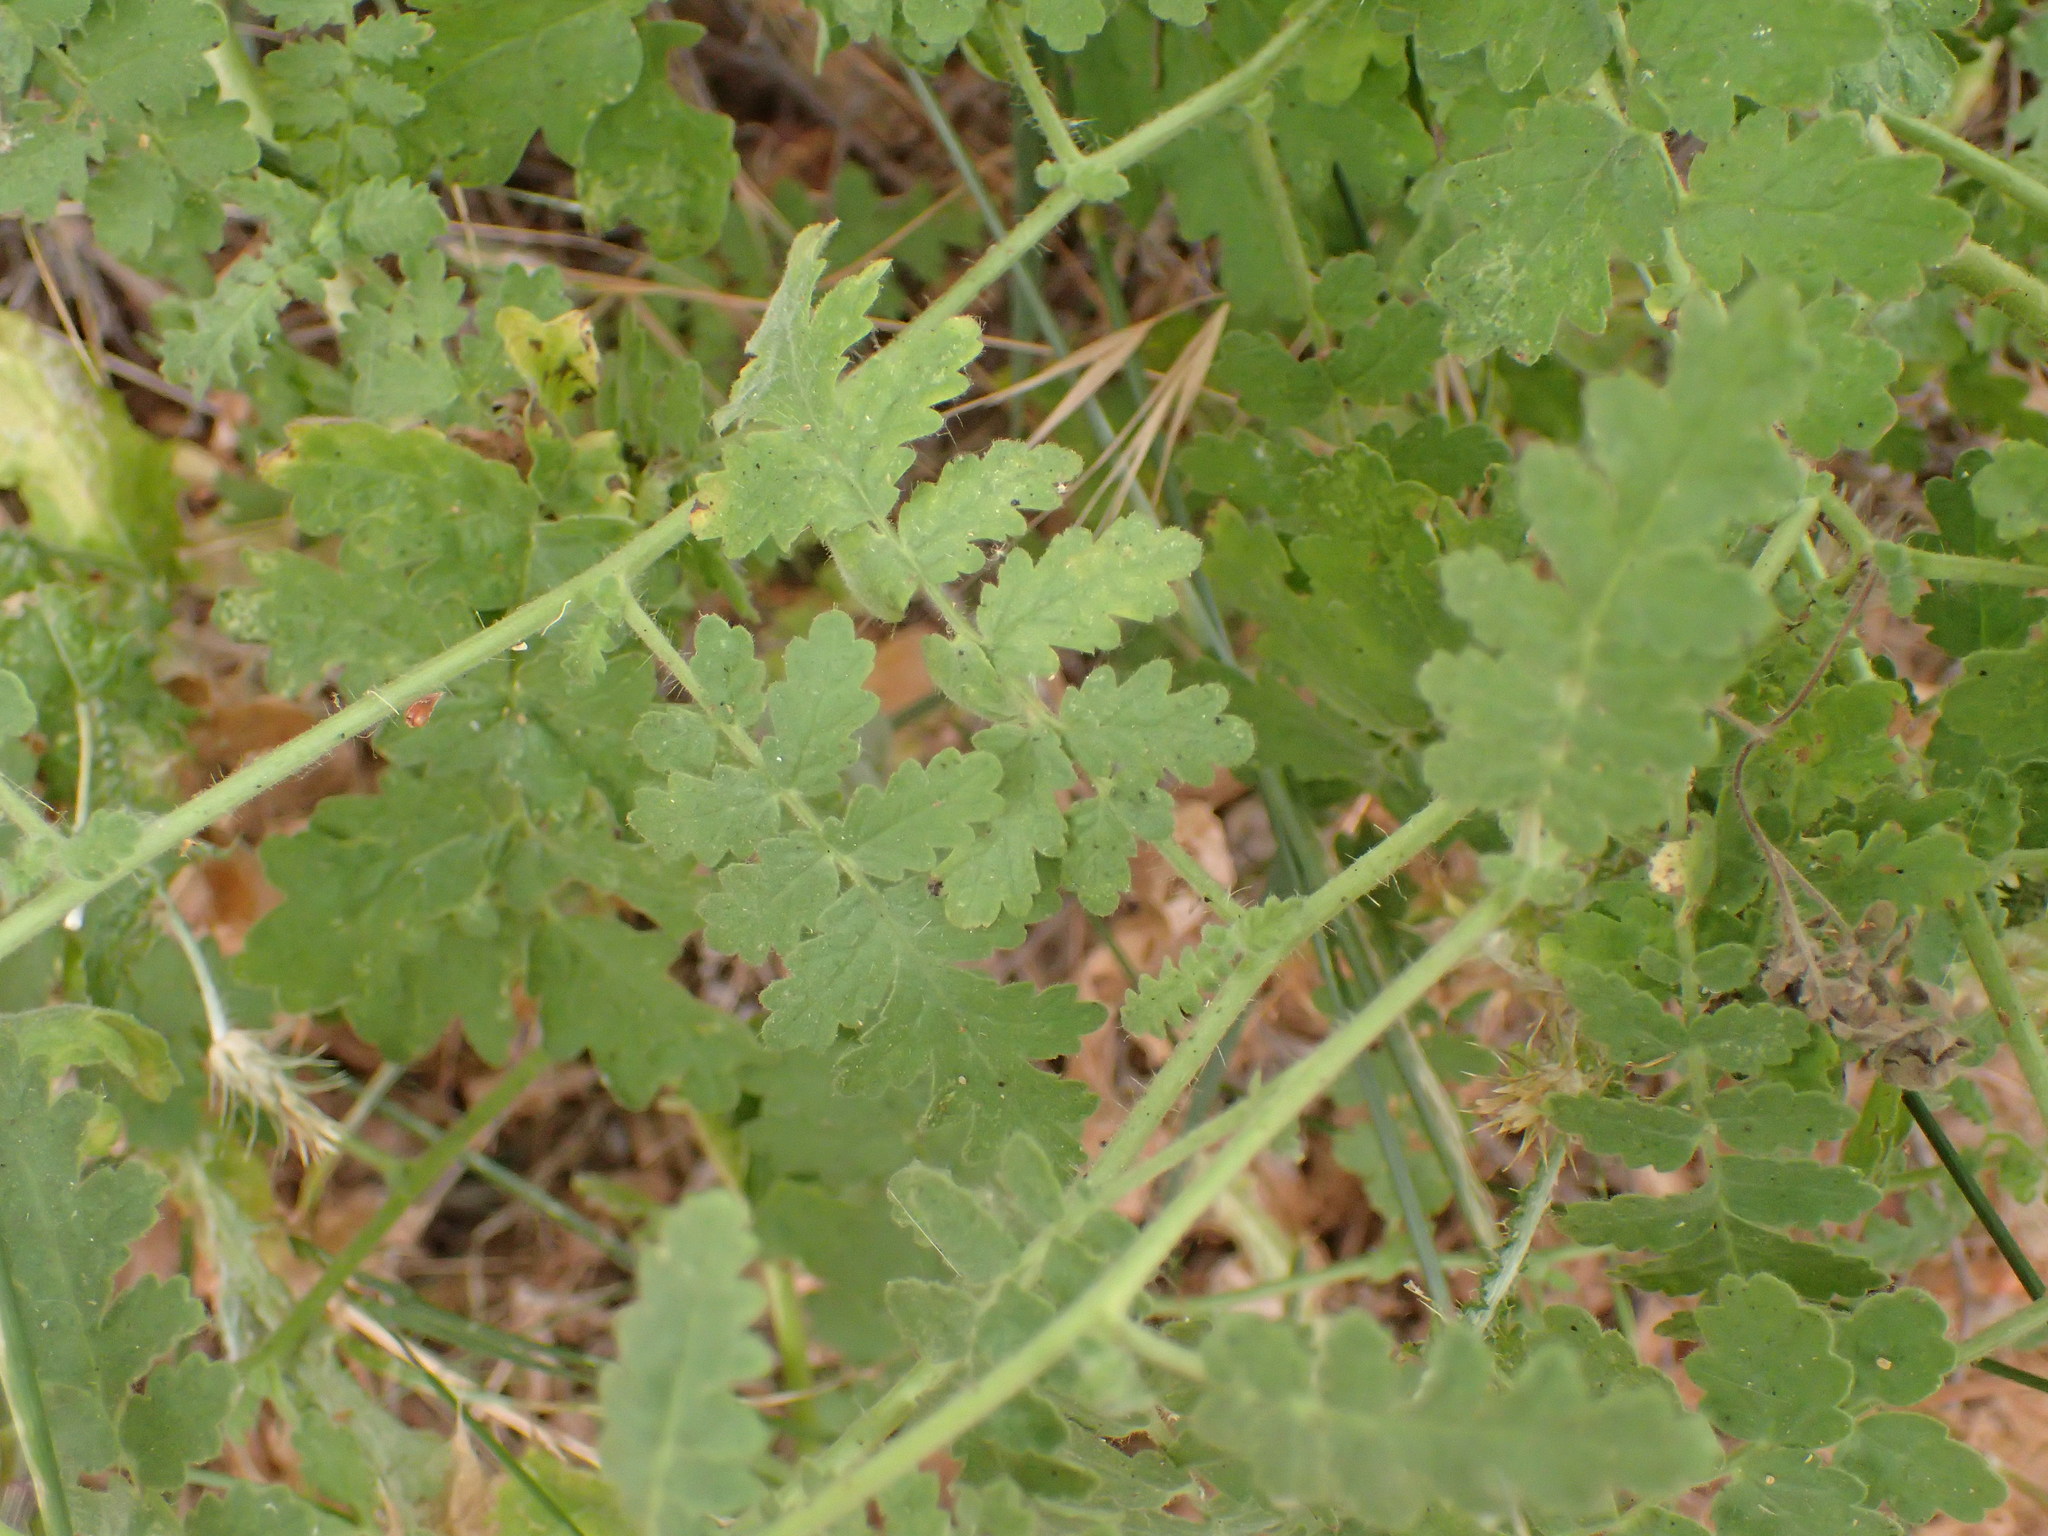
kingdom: Plantae
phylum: Tracheophyta
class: Magnoliopsida
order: Boraginales
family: Hydrophyllaceae
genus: Phacelia
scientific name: Phacelia ramosissima
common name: Branching phacelia
